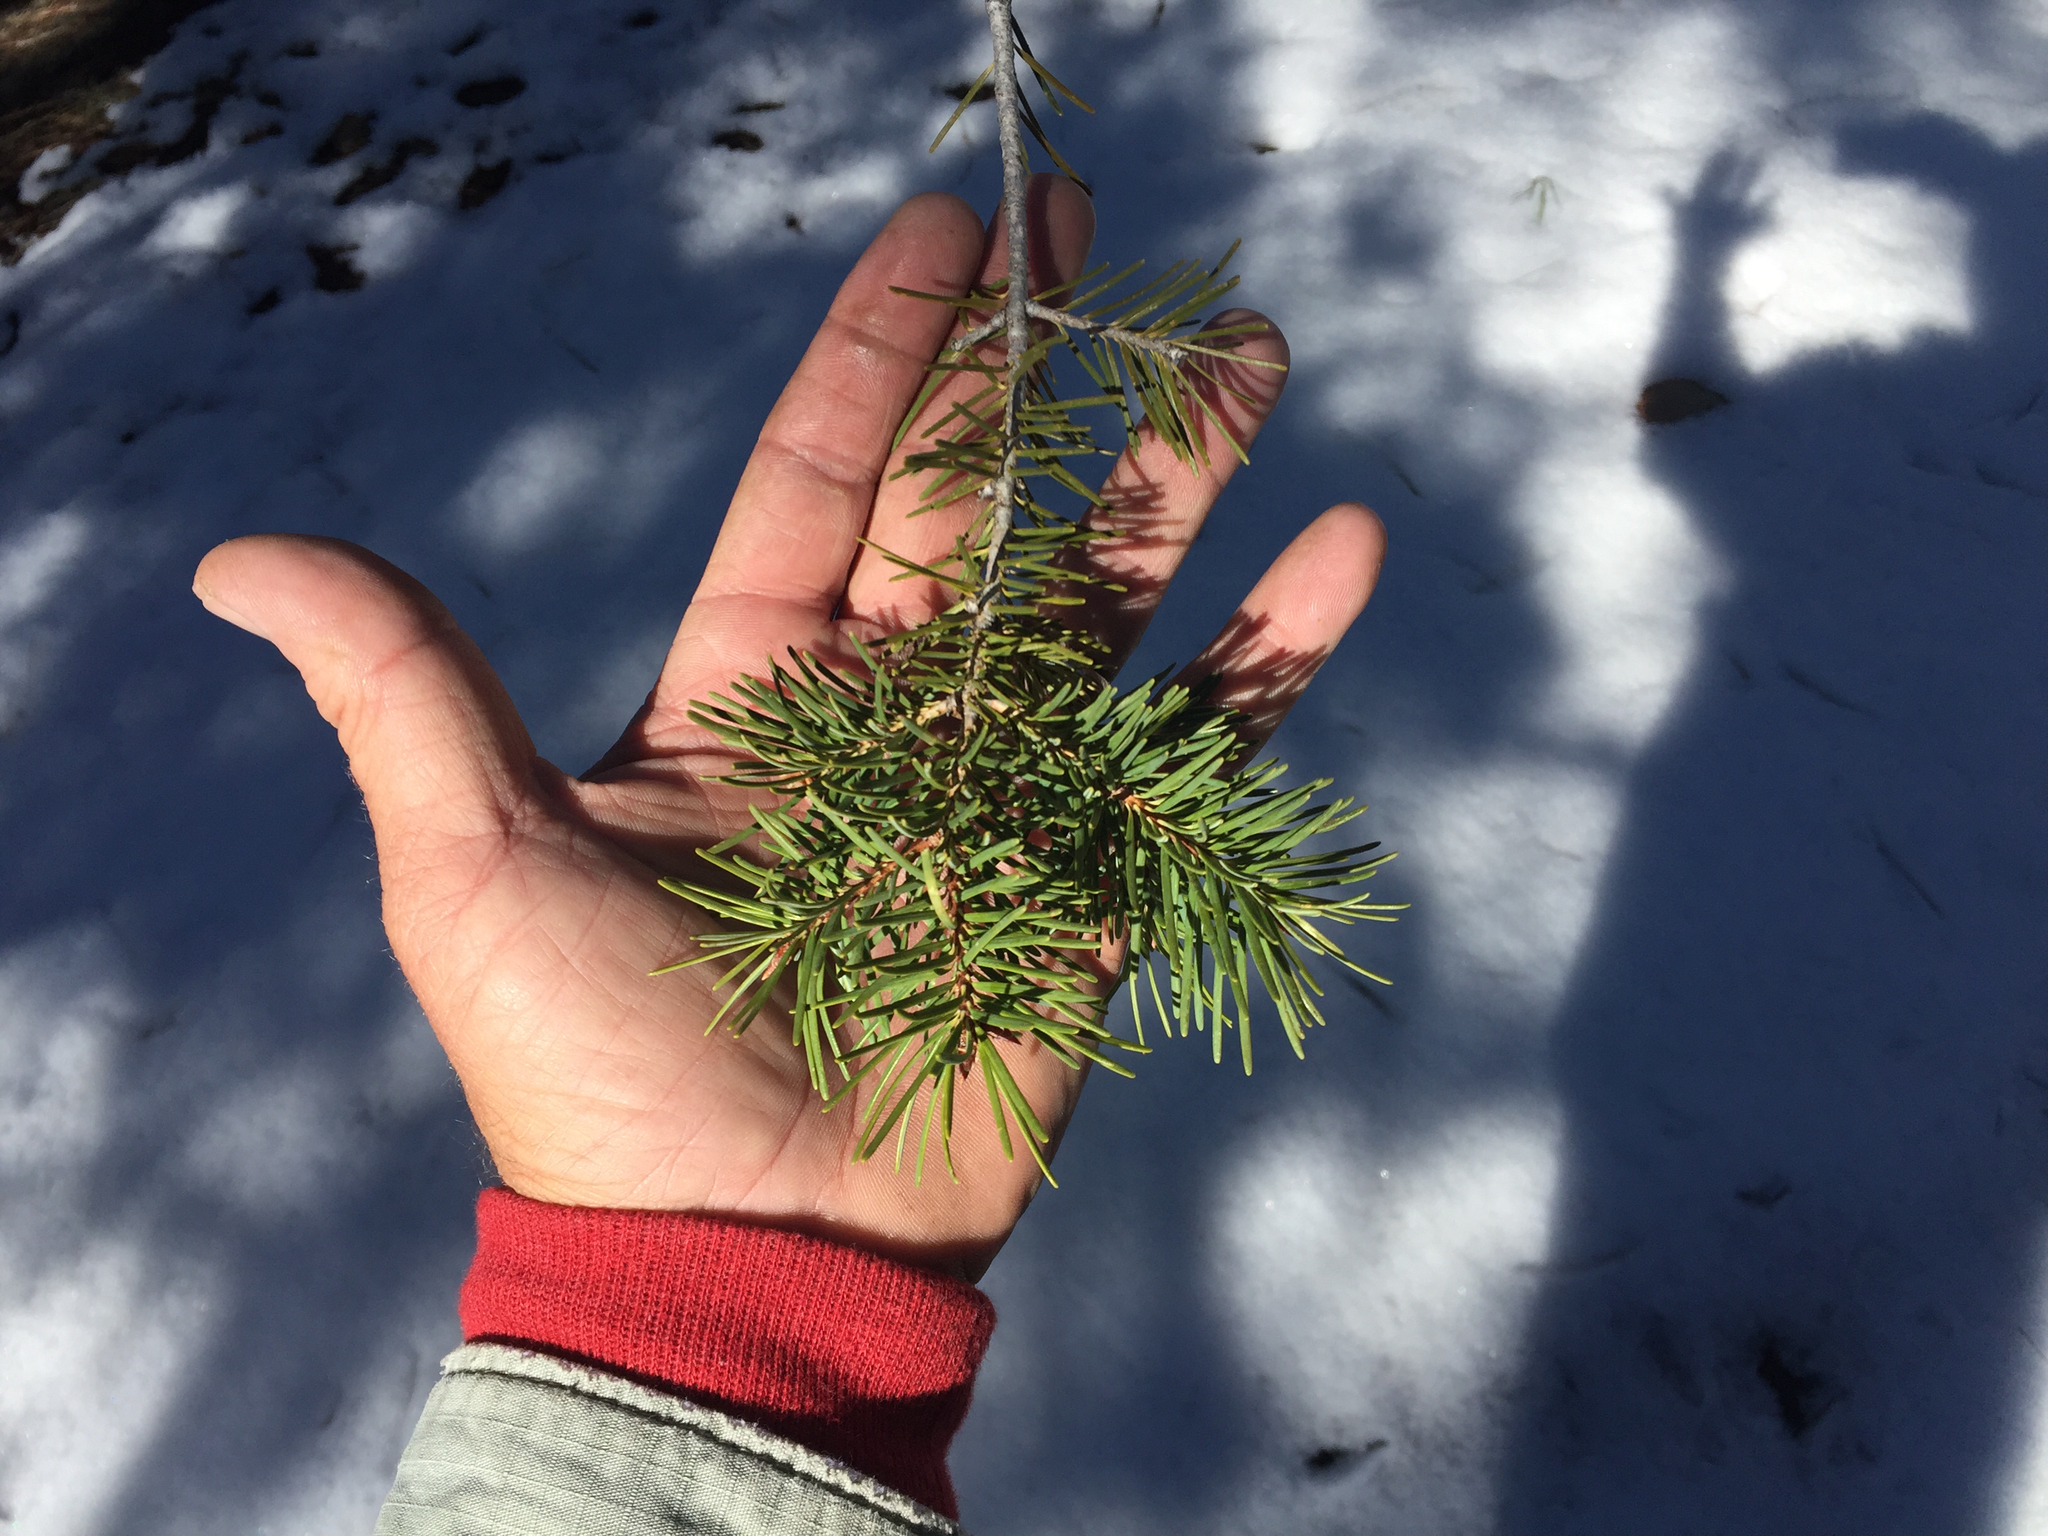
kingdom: Plantae
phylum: Tracheophyta
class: Pinopsida
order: Pinales
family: Pinaceae
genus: Pseudotsuga
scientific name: Pseudotsuga menziesii
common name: Douglas fir
